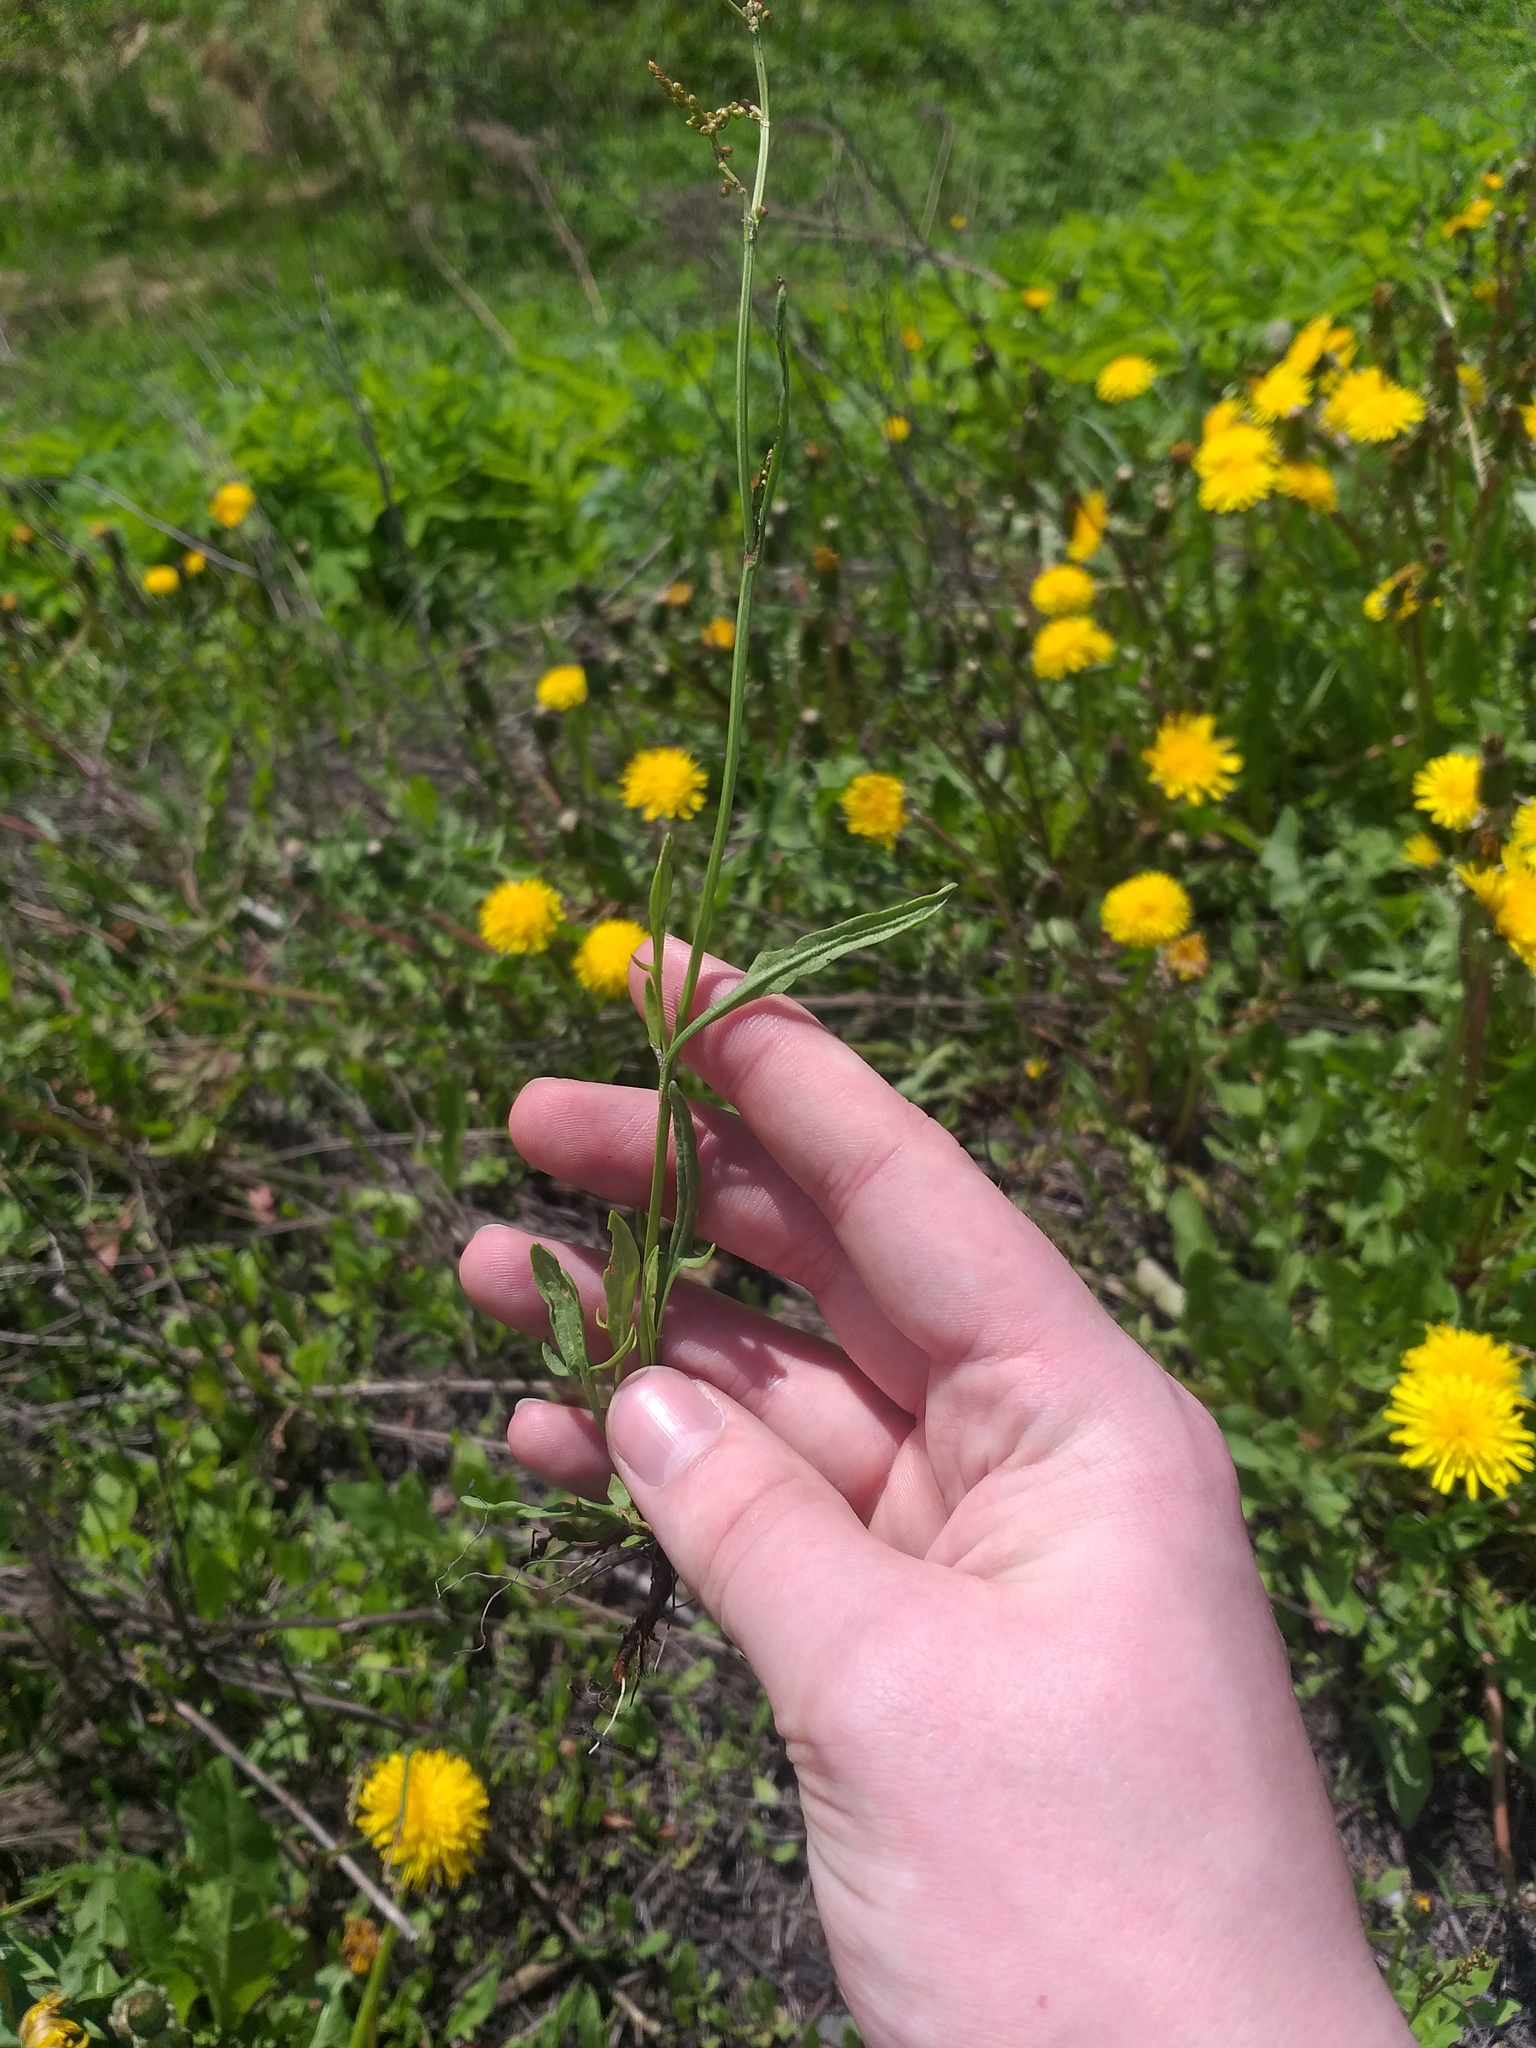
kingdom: Plantae
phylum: Tracheophyta
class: Magnoliopsida
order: Caryophyllales
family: Polygonaceae
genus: Rumex
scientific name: Rumex acetosella
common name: Common sheep sorrel
